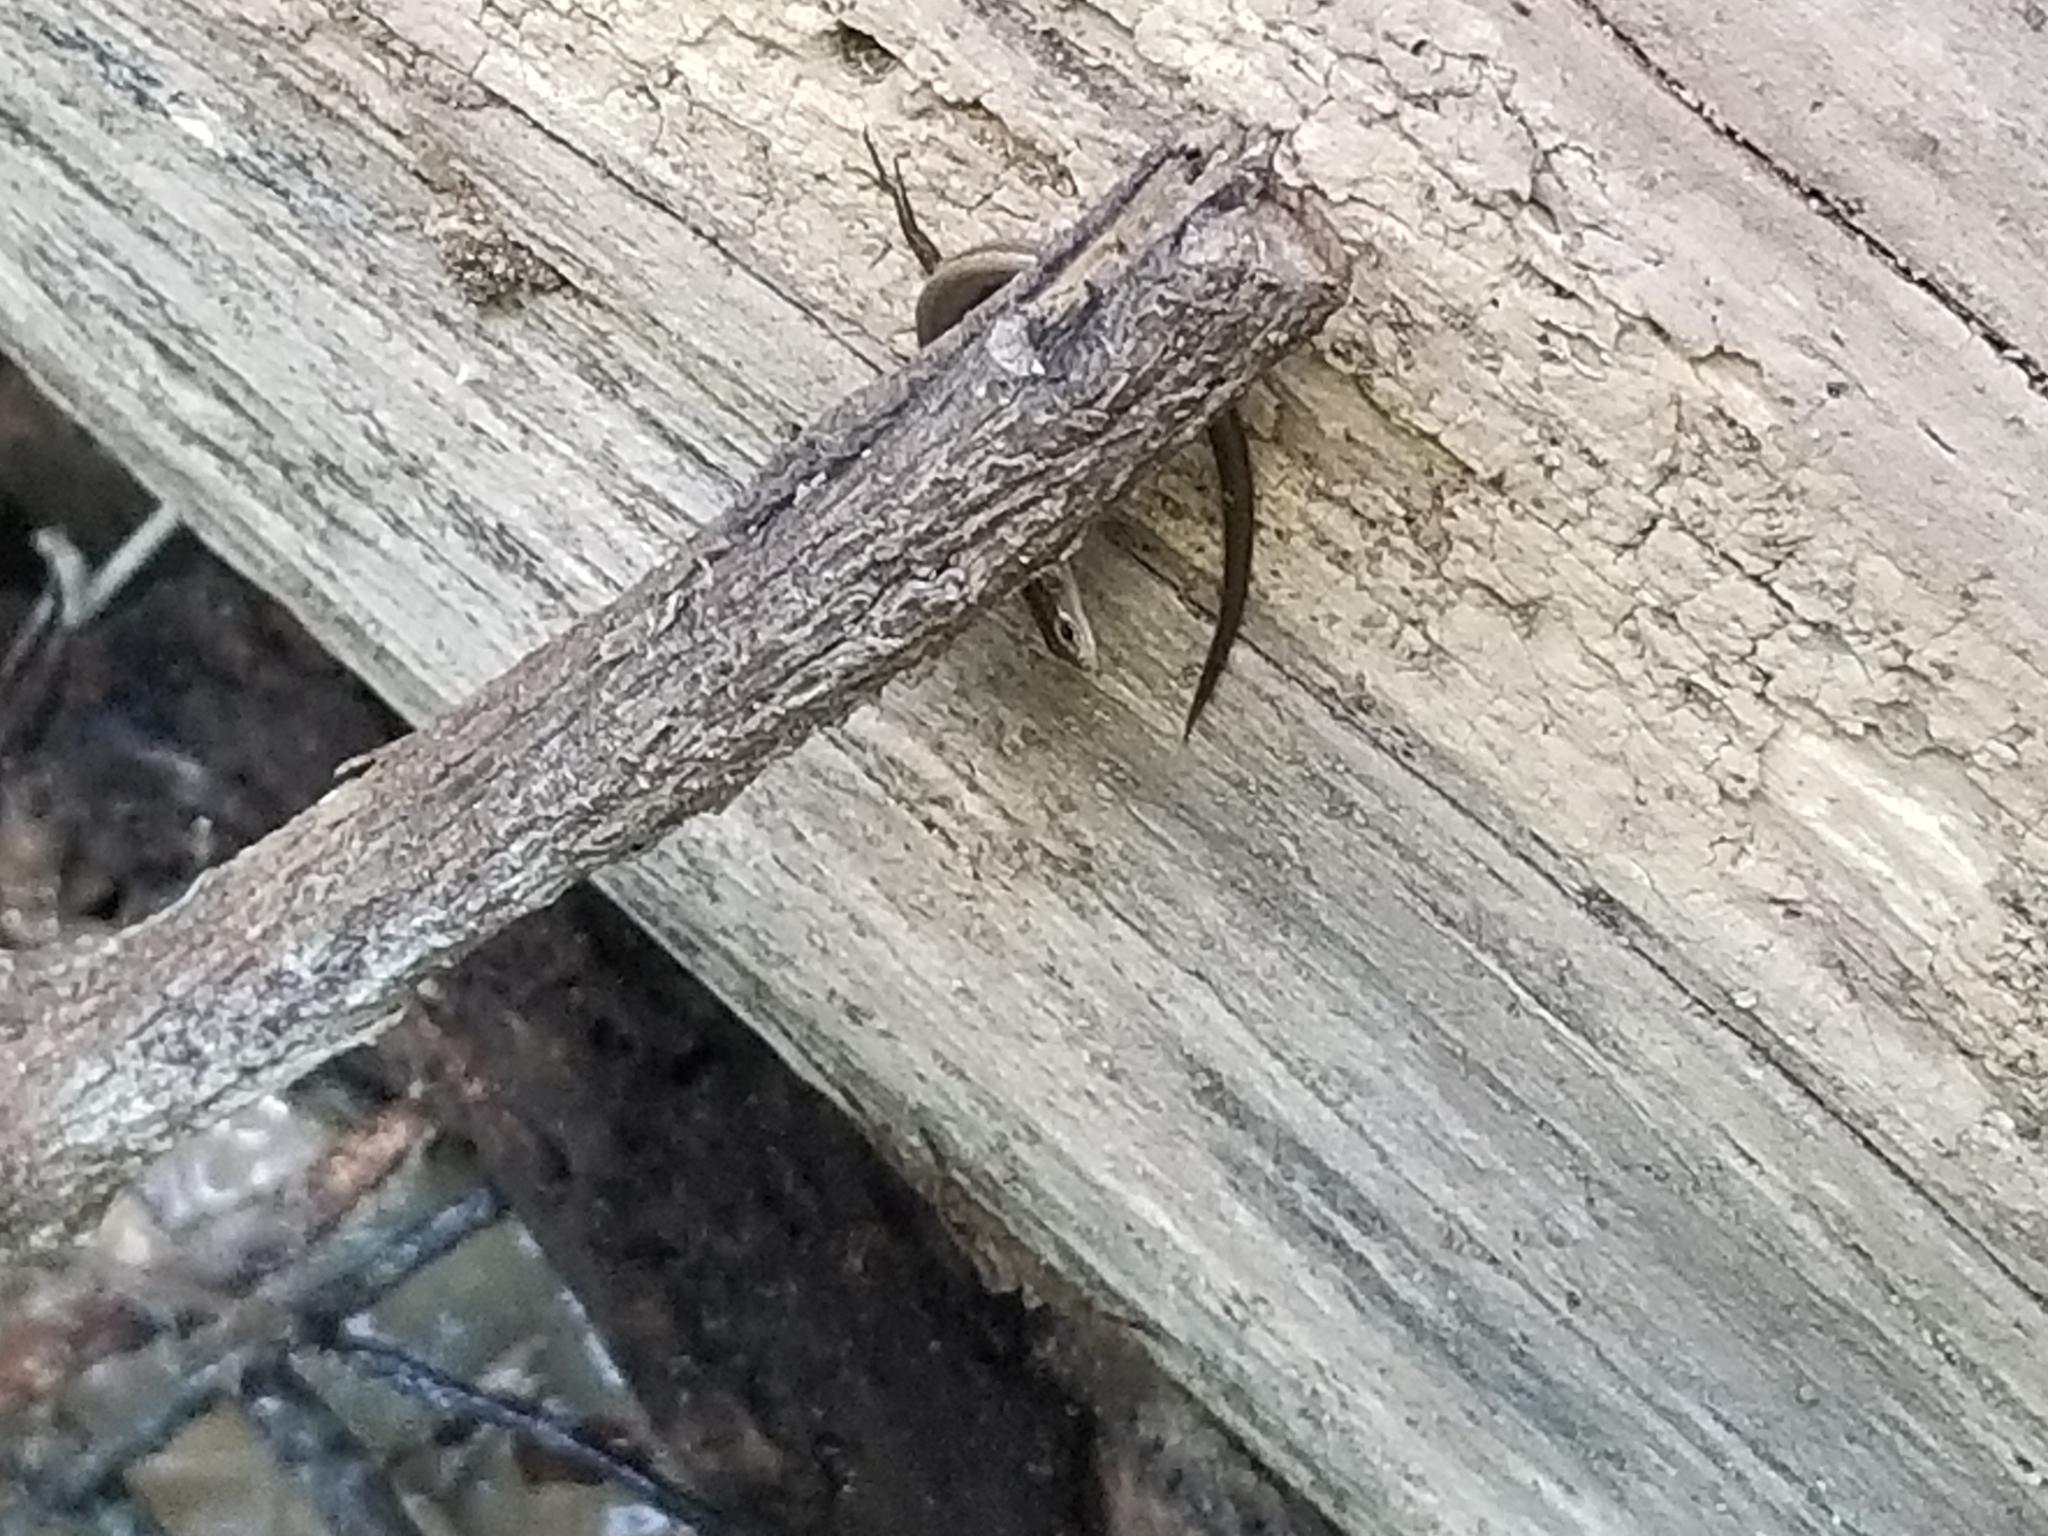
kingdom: Animalia
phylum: Chordata
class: Squamata
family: Scincidae
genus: Scincella
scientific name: Scincella lateralis
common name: Ground skink
